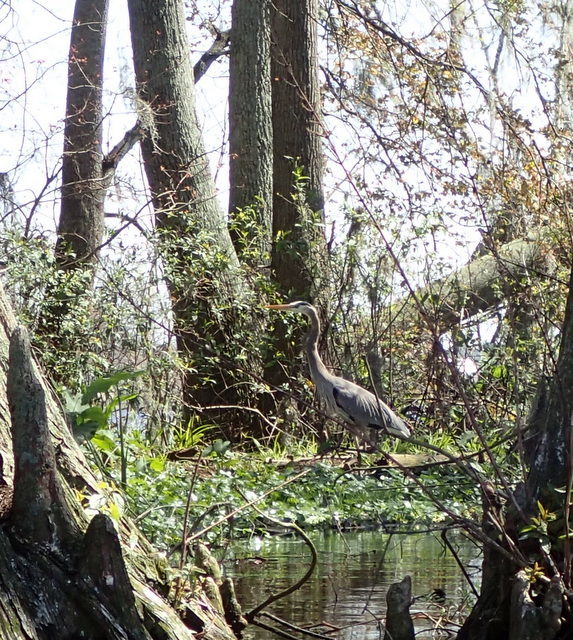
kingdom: Animalia
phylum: Chordata
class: Aves
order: Pelecaniformes
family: Ardeidae
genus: Ardea
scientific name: Ardea herodias
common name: Great blue heron
